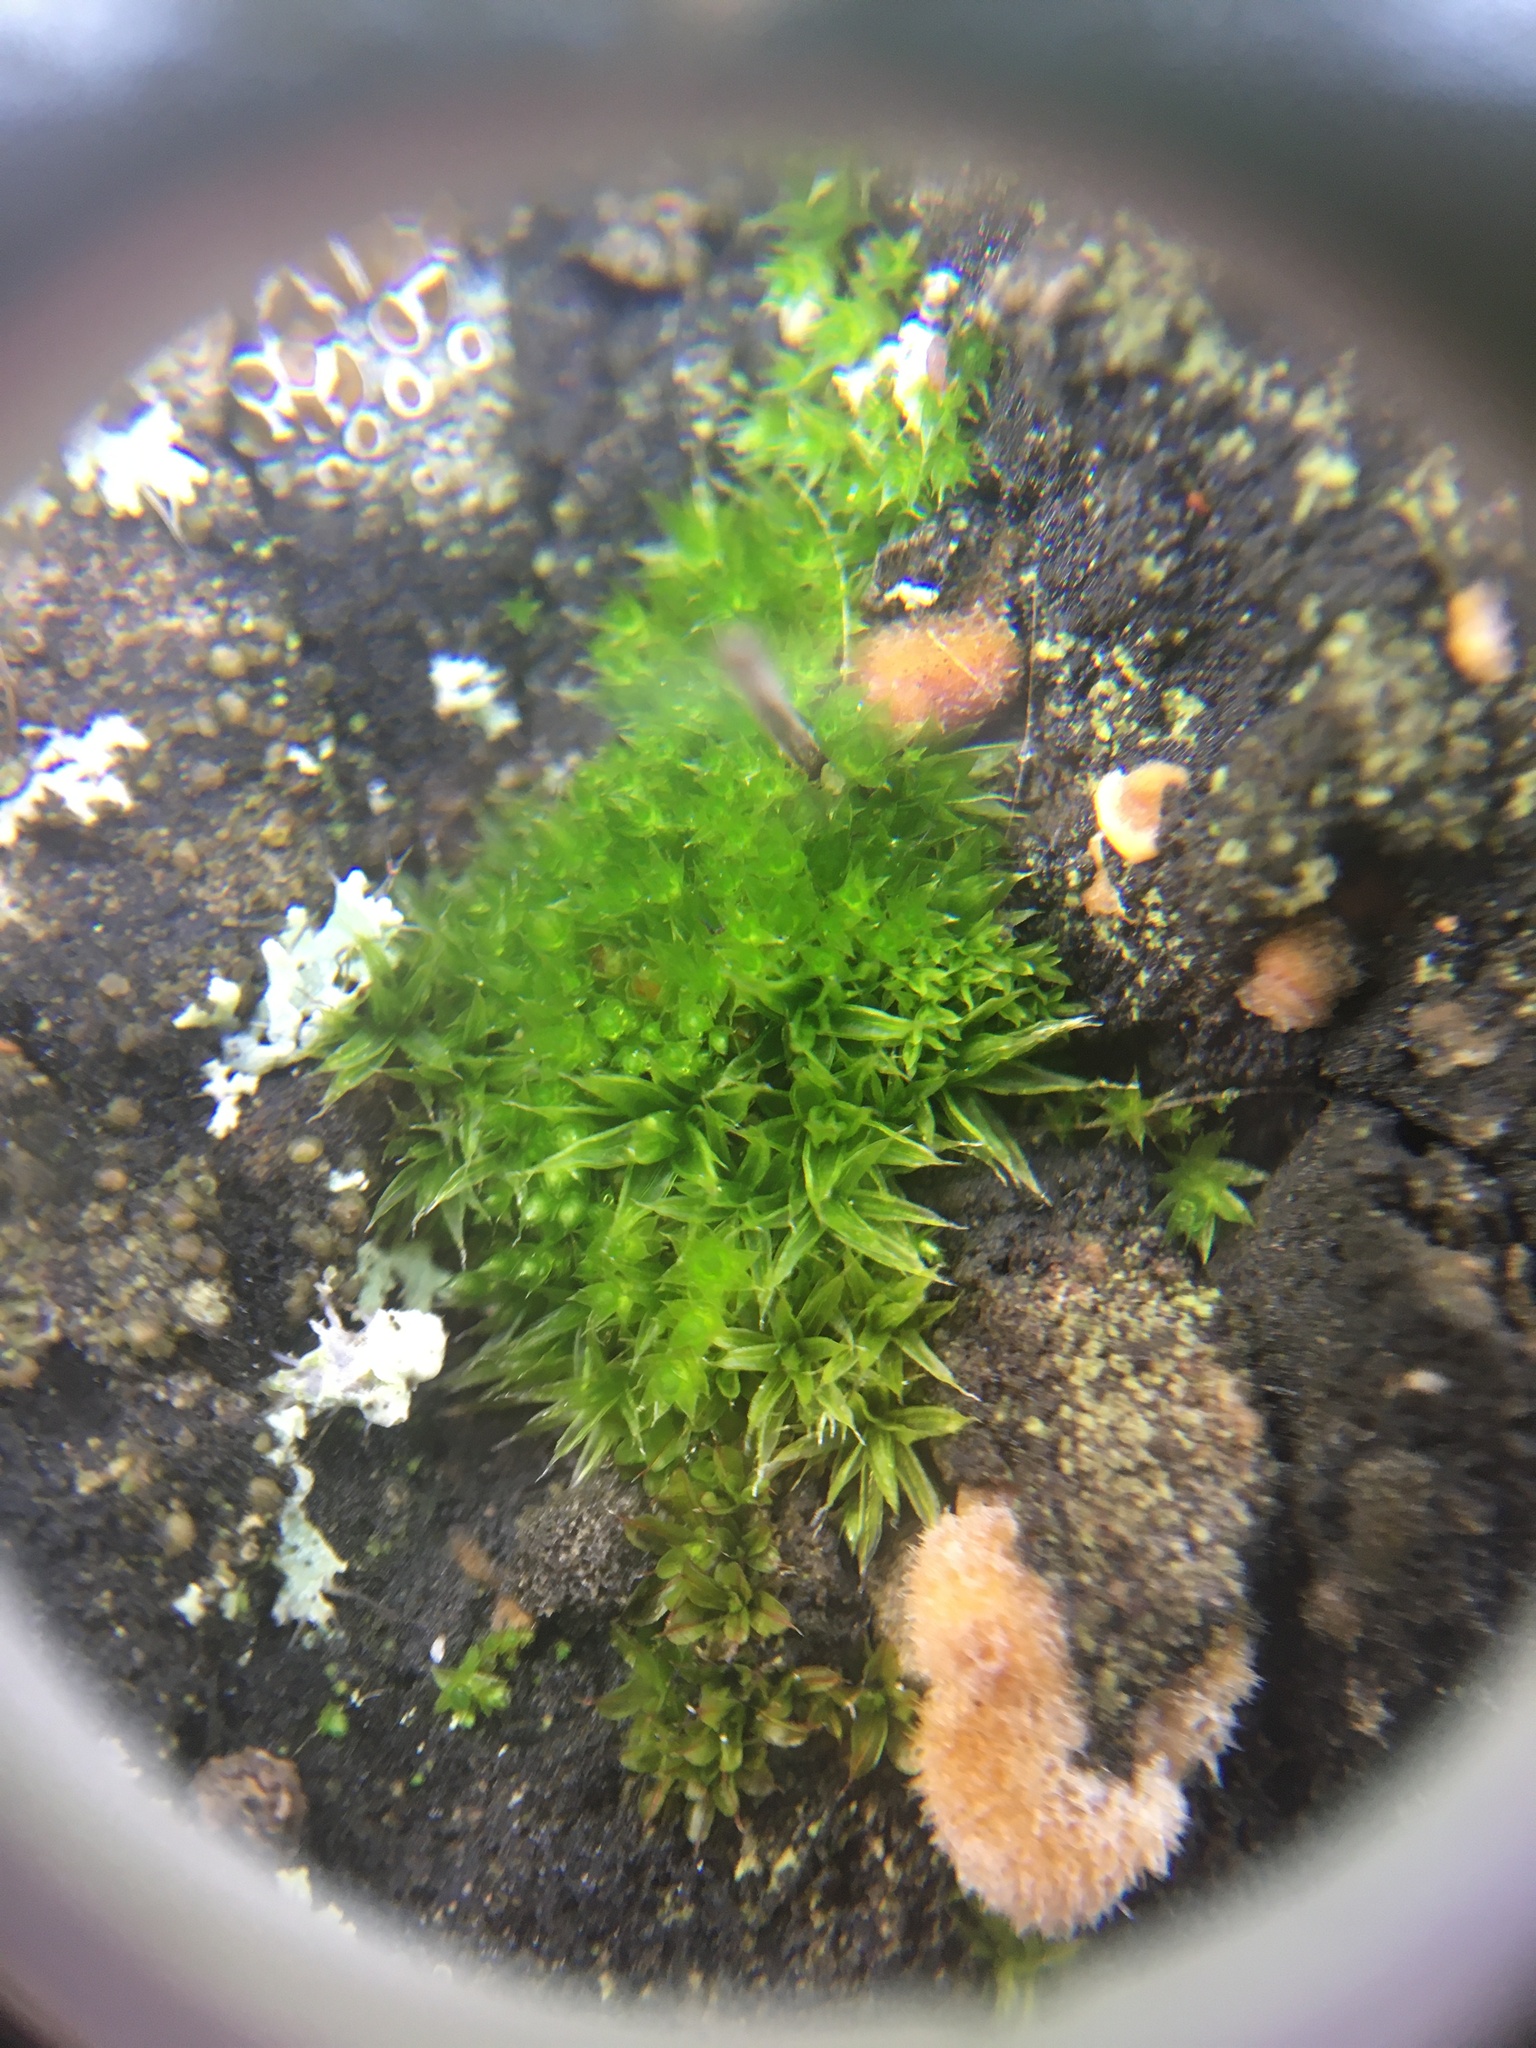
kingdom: Plantae
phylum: Bryophyta
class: Bryopsida
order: Orthotrichales
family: Orthotrichaceae
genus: Orthotrichum
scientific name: Orthotrichum diaphanum
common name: White-tipped bristle-moss
